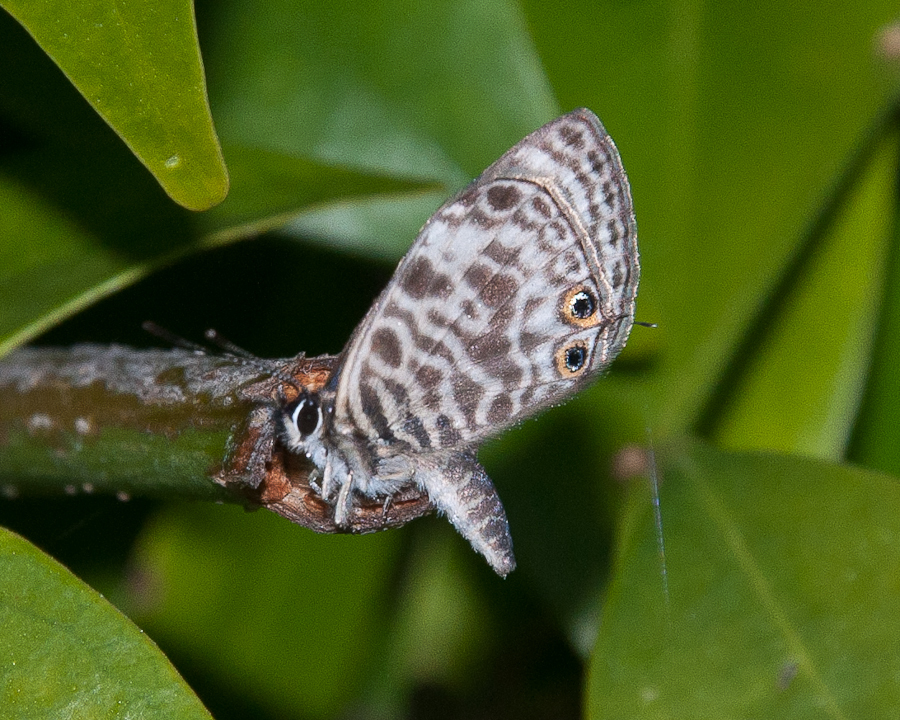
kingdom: Animalia
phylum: Arthropoda
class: Insecta
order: Lepidoptera
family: Lycaenidae
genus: Leptotes
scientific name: Leptotes
